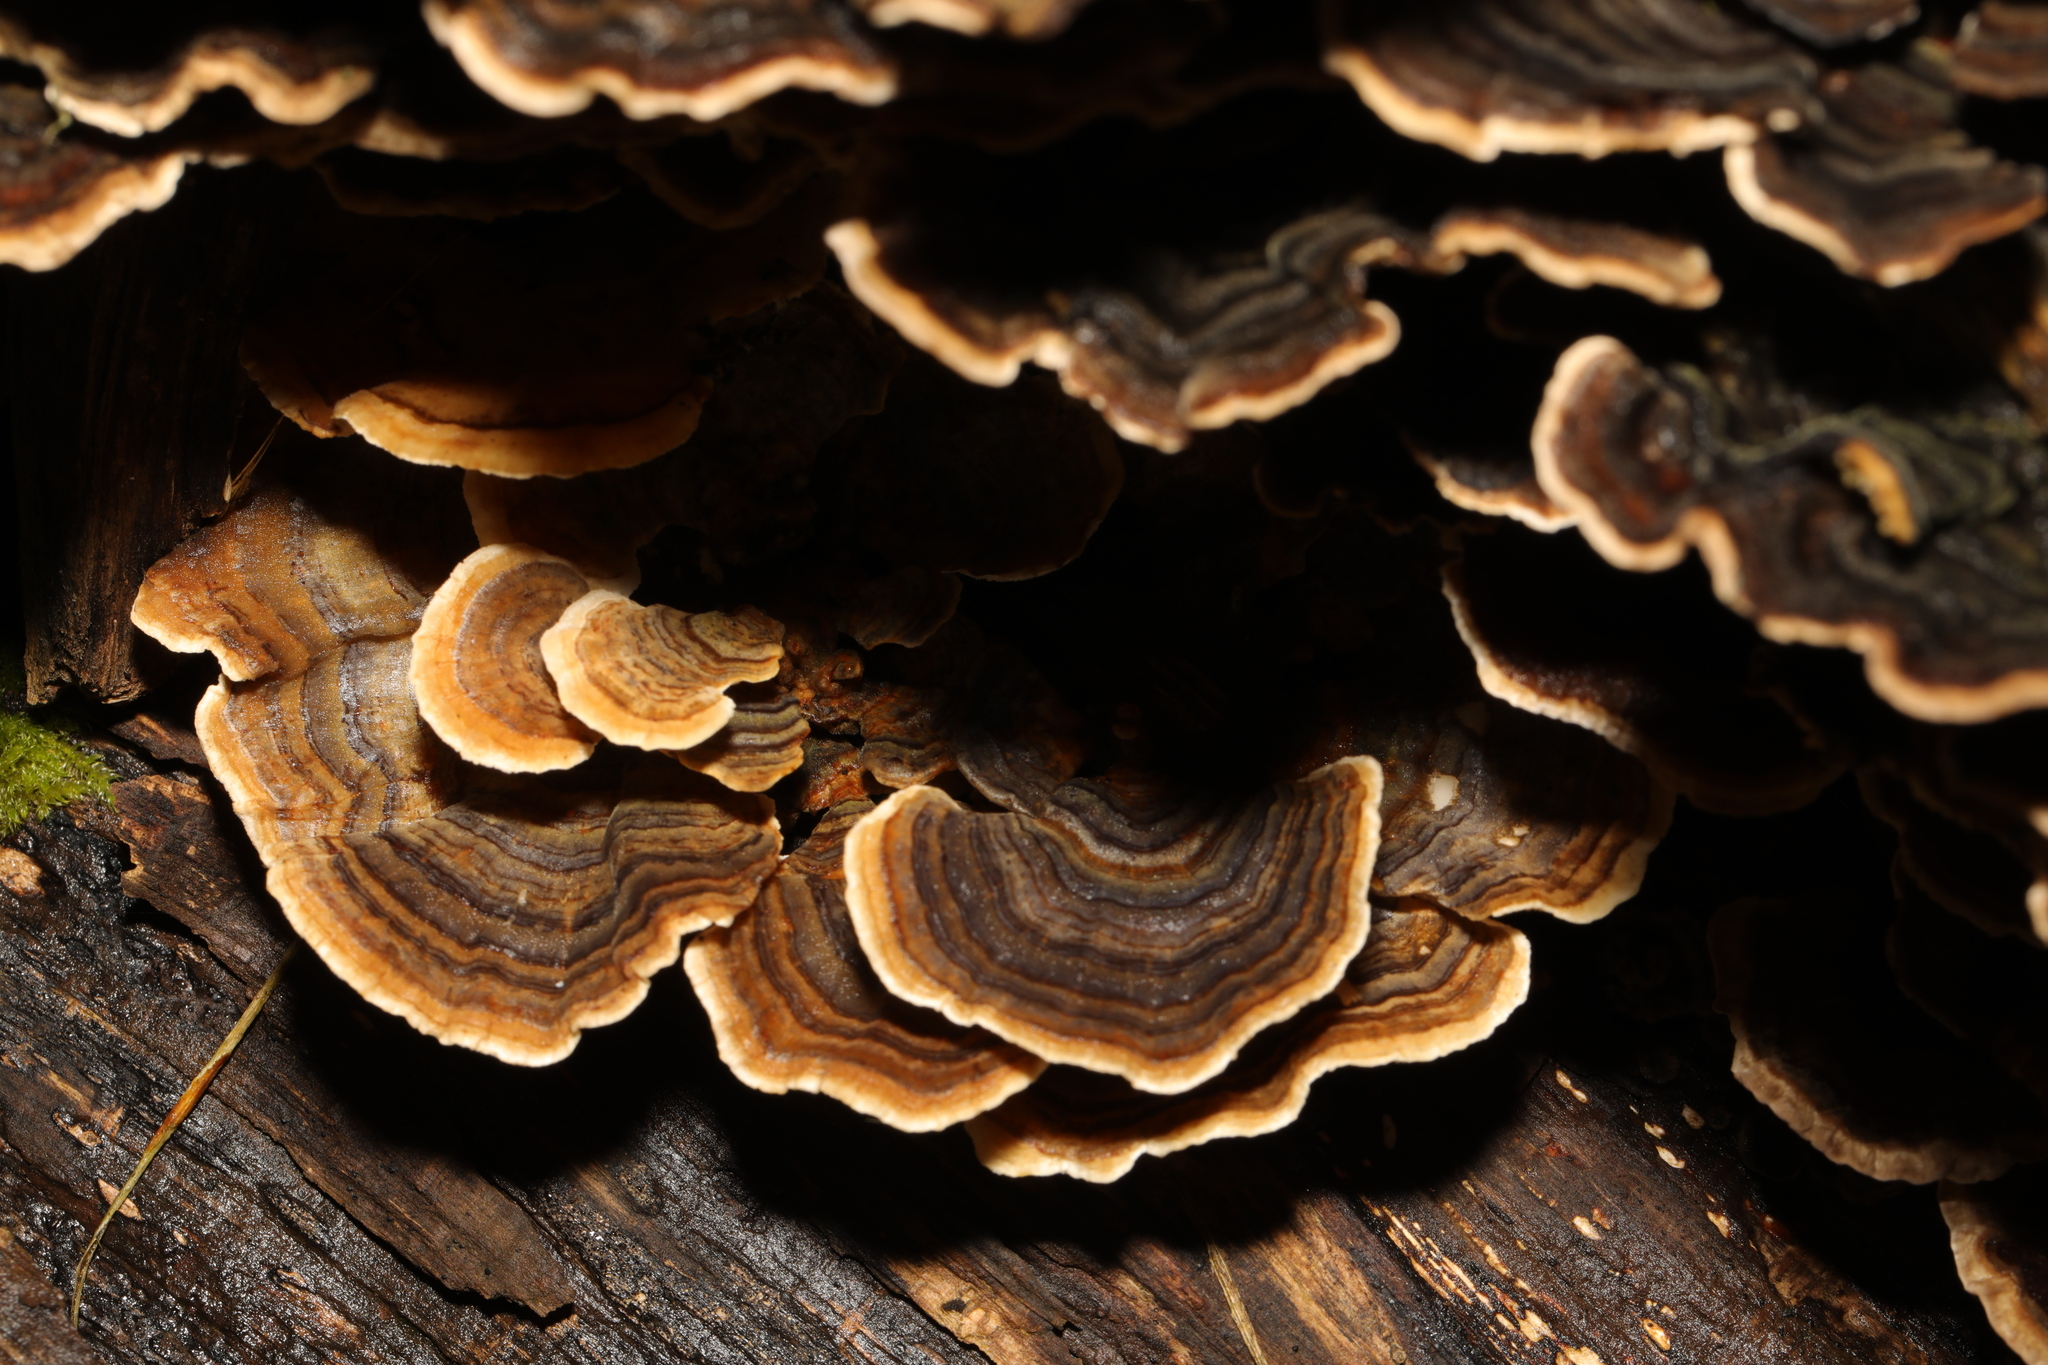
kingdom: Fungi
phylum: Basidiomycota
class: Agaricomycetes
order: Polyporales
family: Polyporaceae
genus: Trametes
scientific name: Trametes versicolor
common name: Turkeytail
